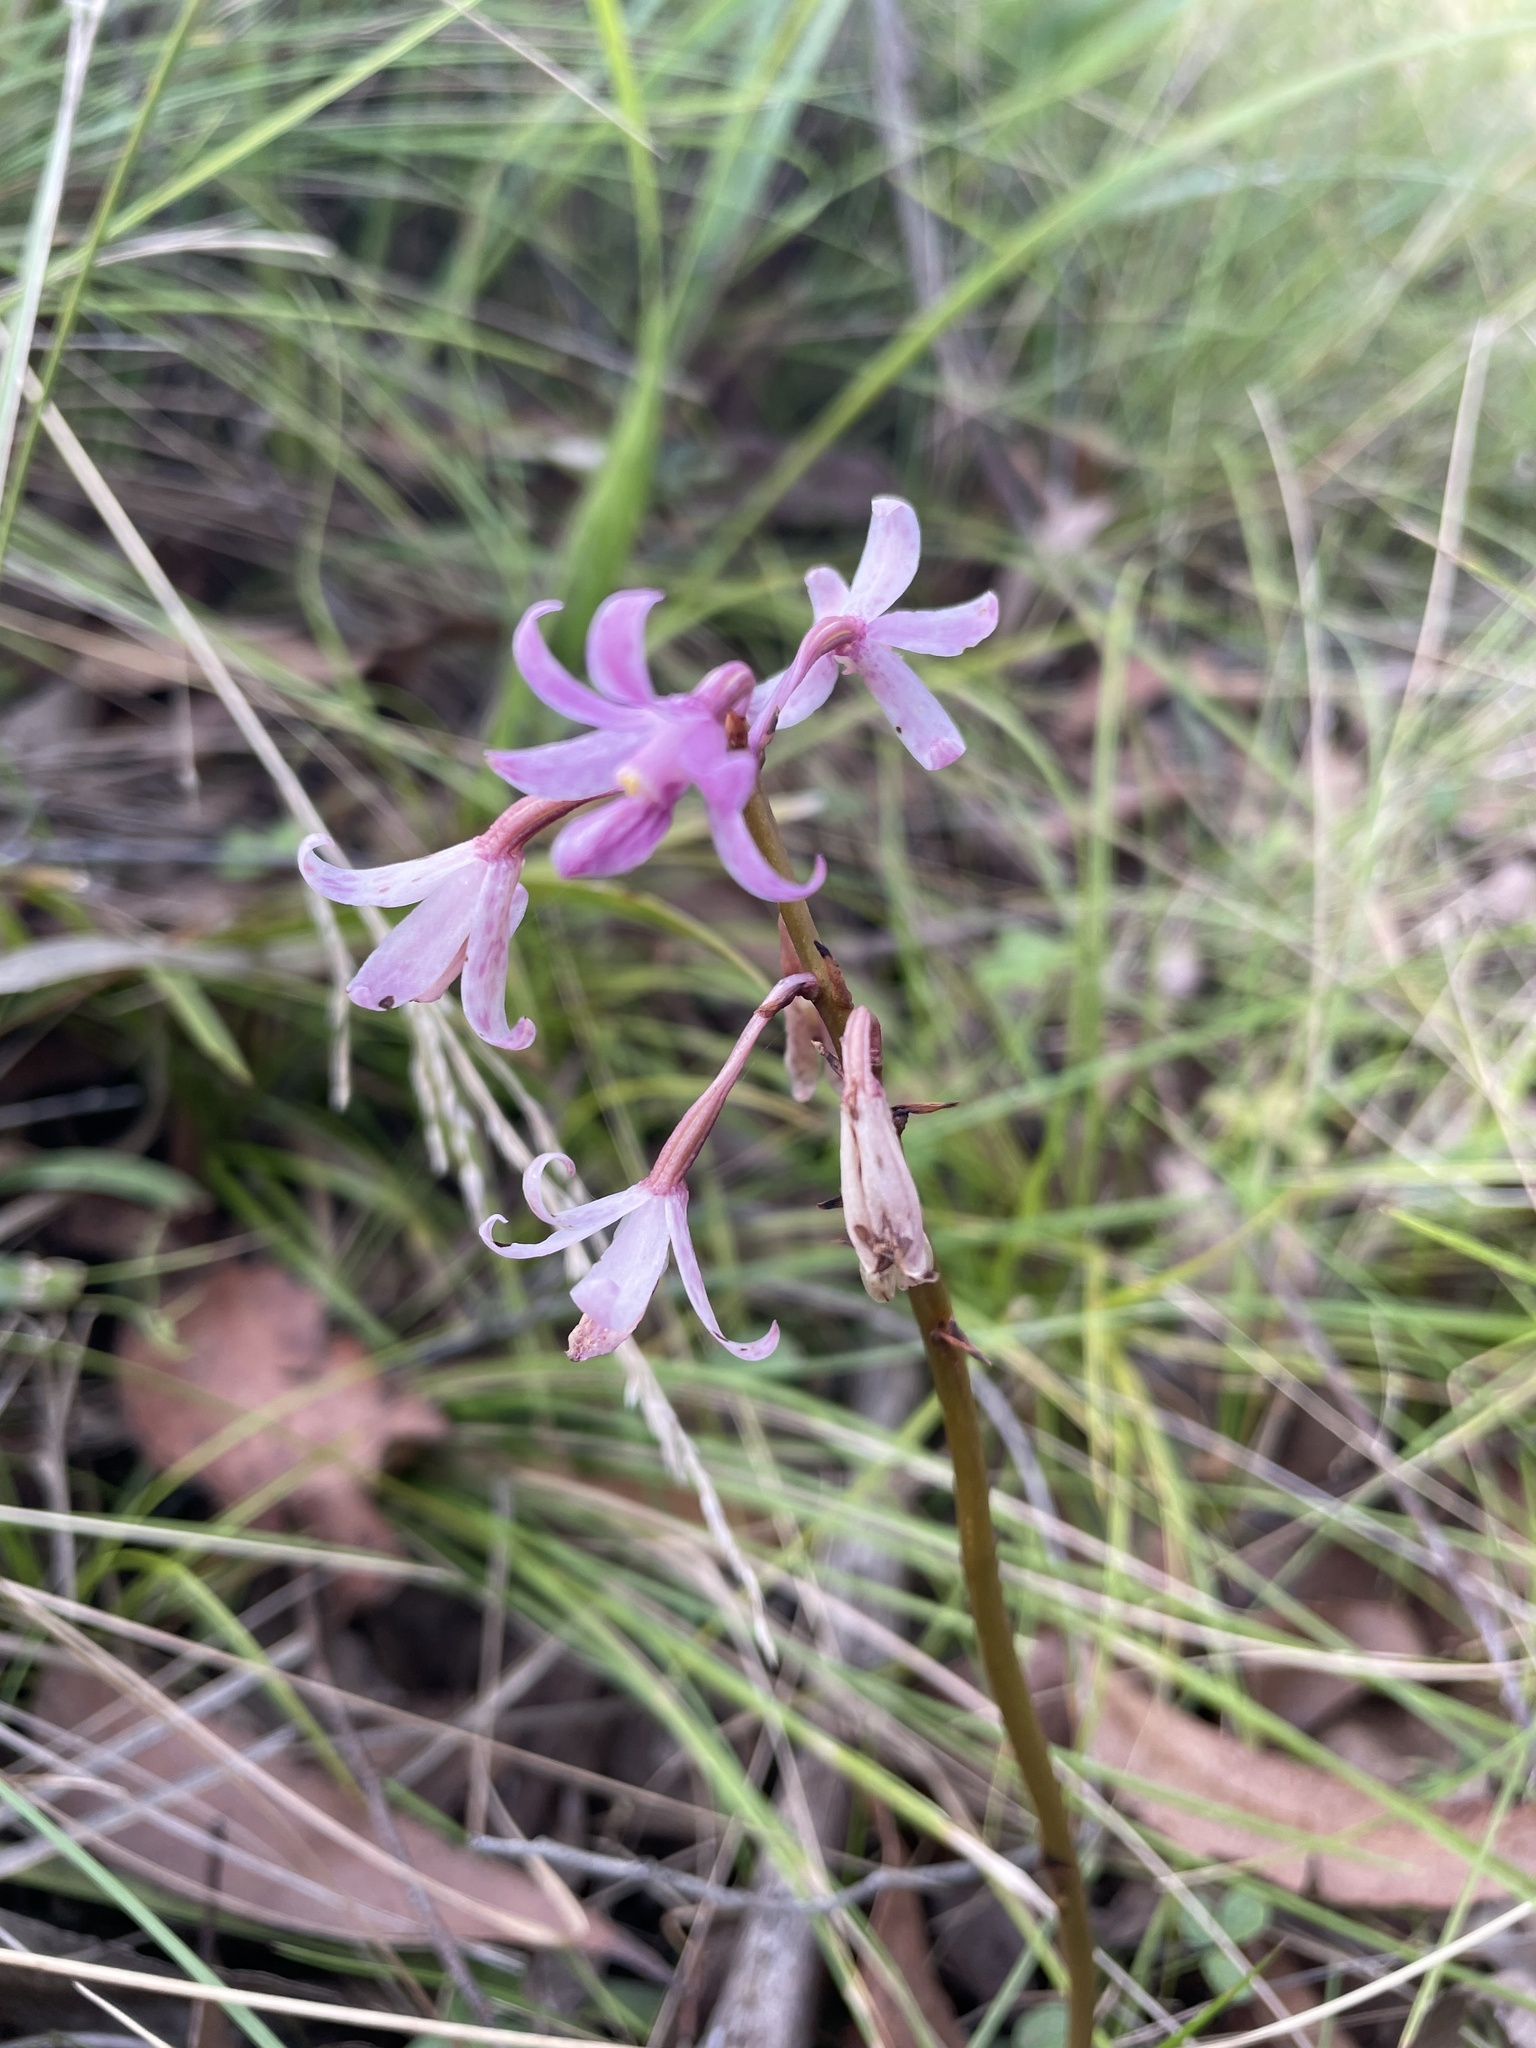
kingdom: Plantae
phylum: Tracheophyta
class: Liliopsida
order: Asparagales
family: Orchidaceae
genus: Dipodium
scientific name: Dipodium roseum
